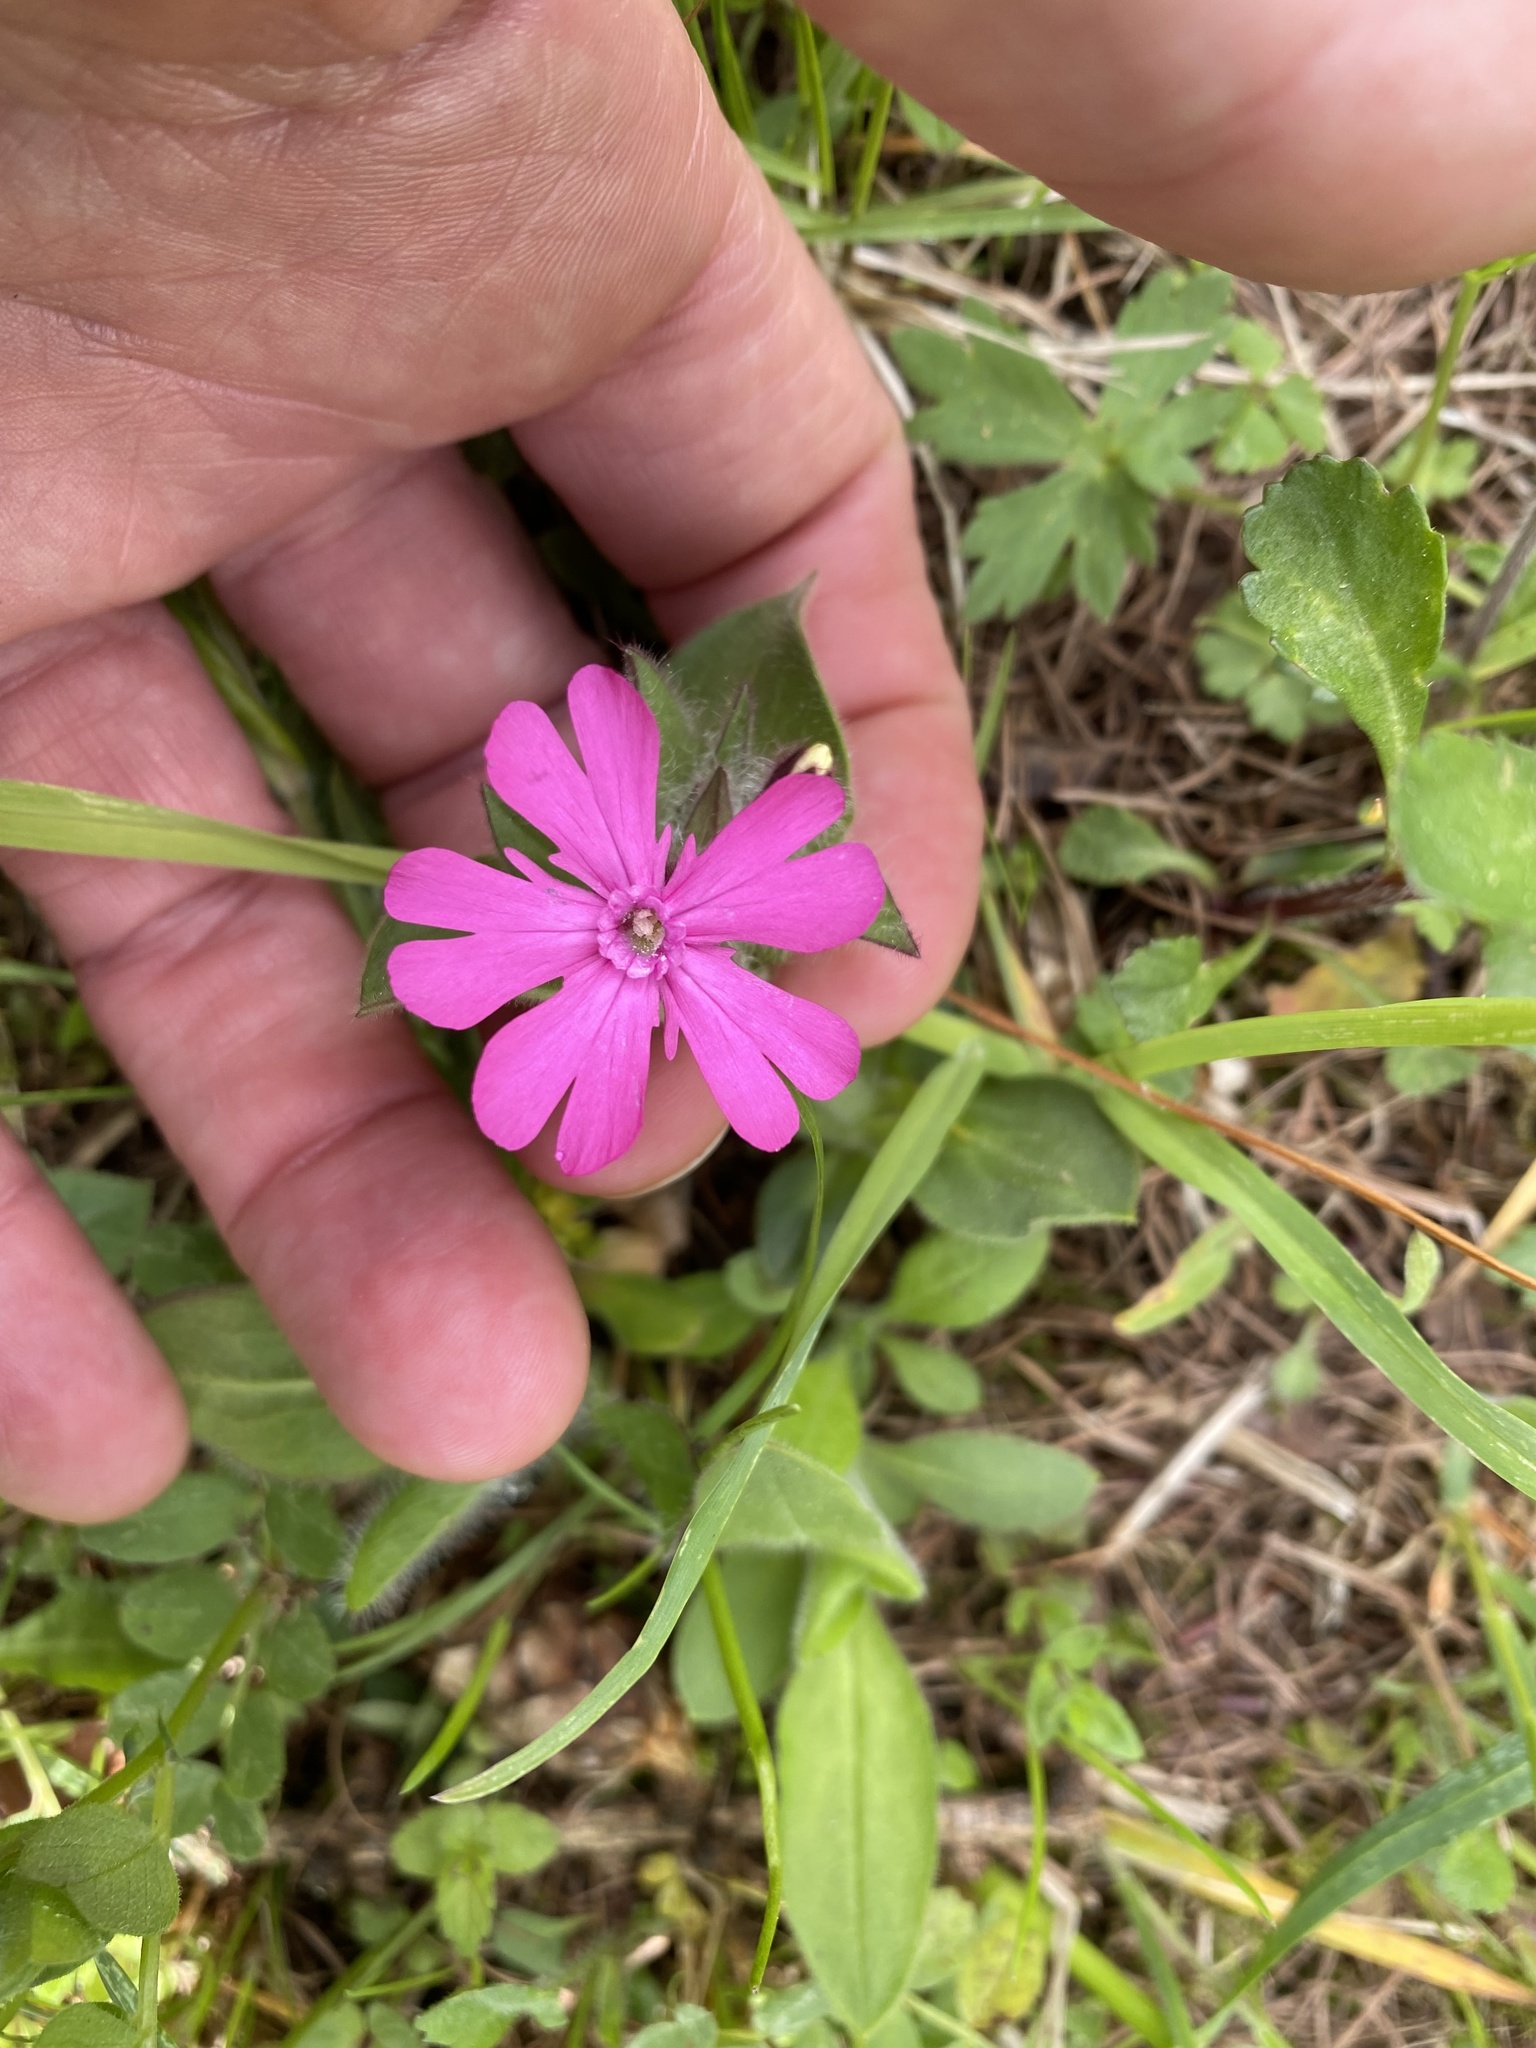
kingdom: Plantae
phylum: Tracheophyta
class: Magnoliopsida
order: Caryophyllales
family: Caryophyllaceae
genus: Silene
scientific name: Silene dioica
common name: Red campion
